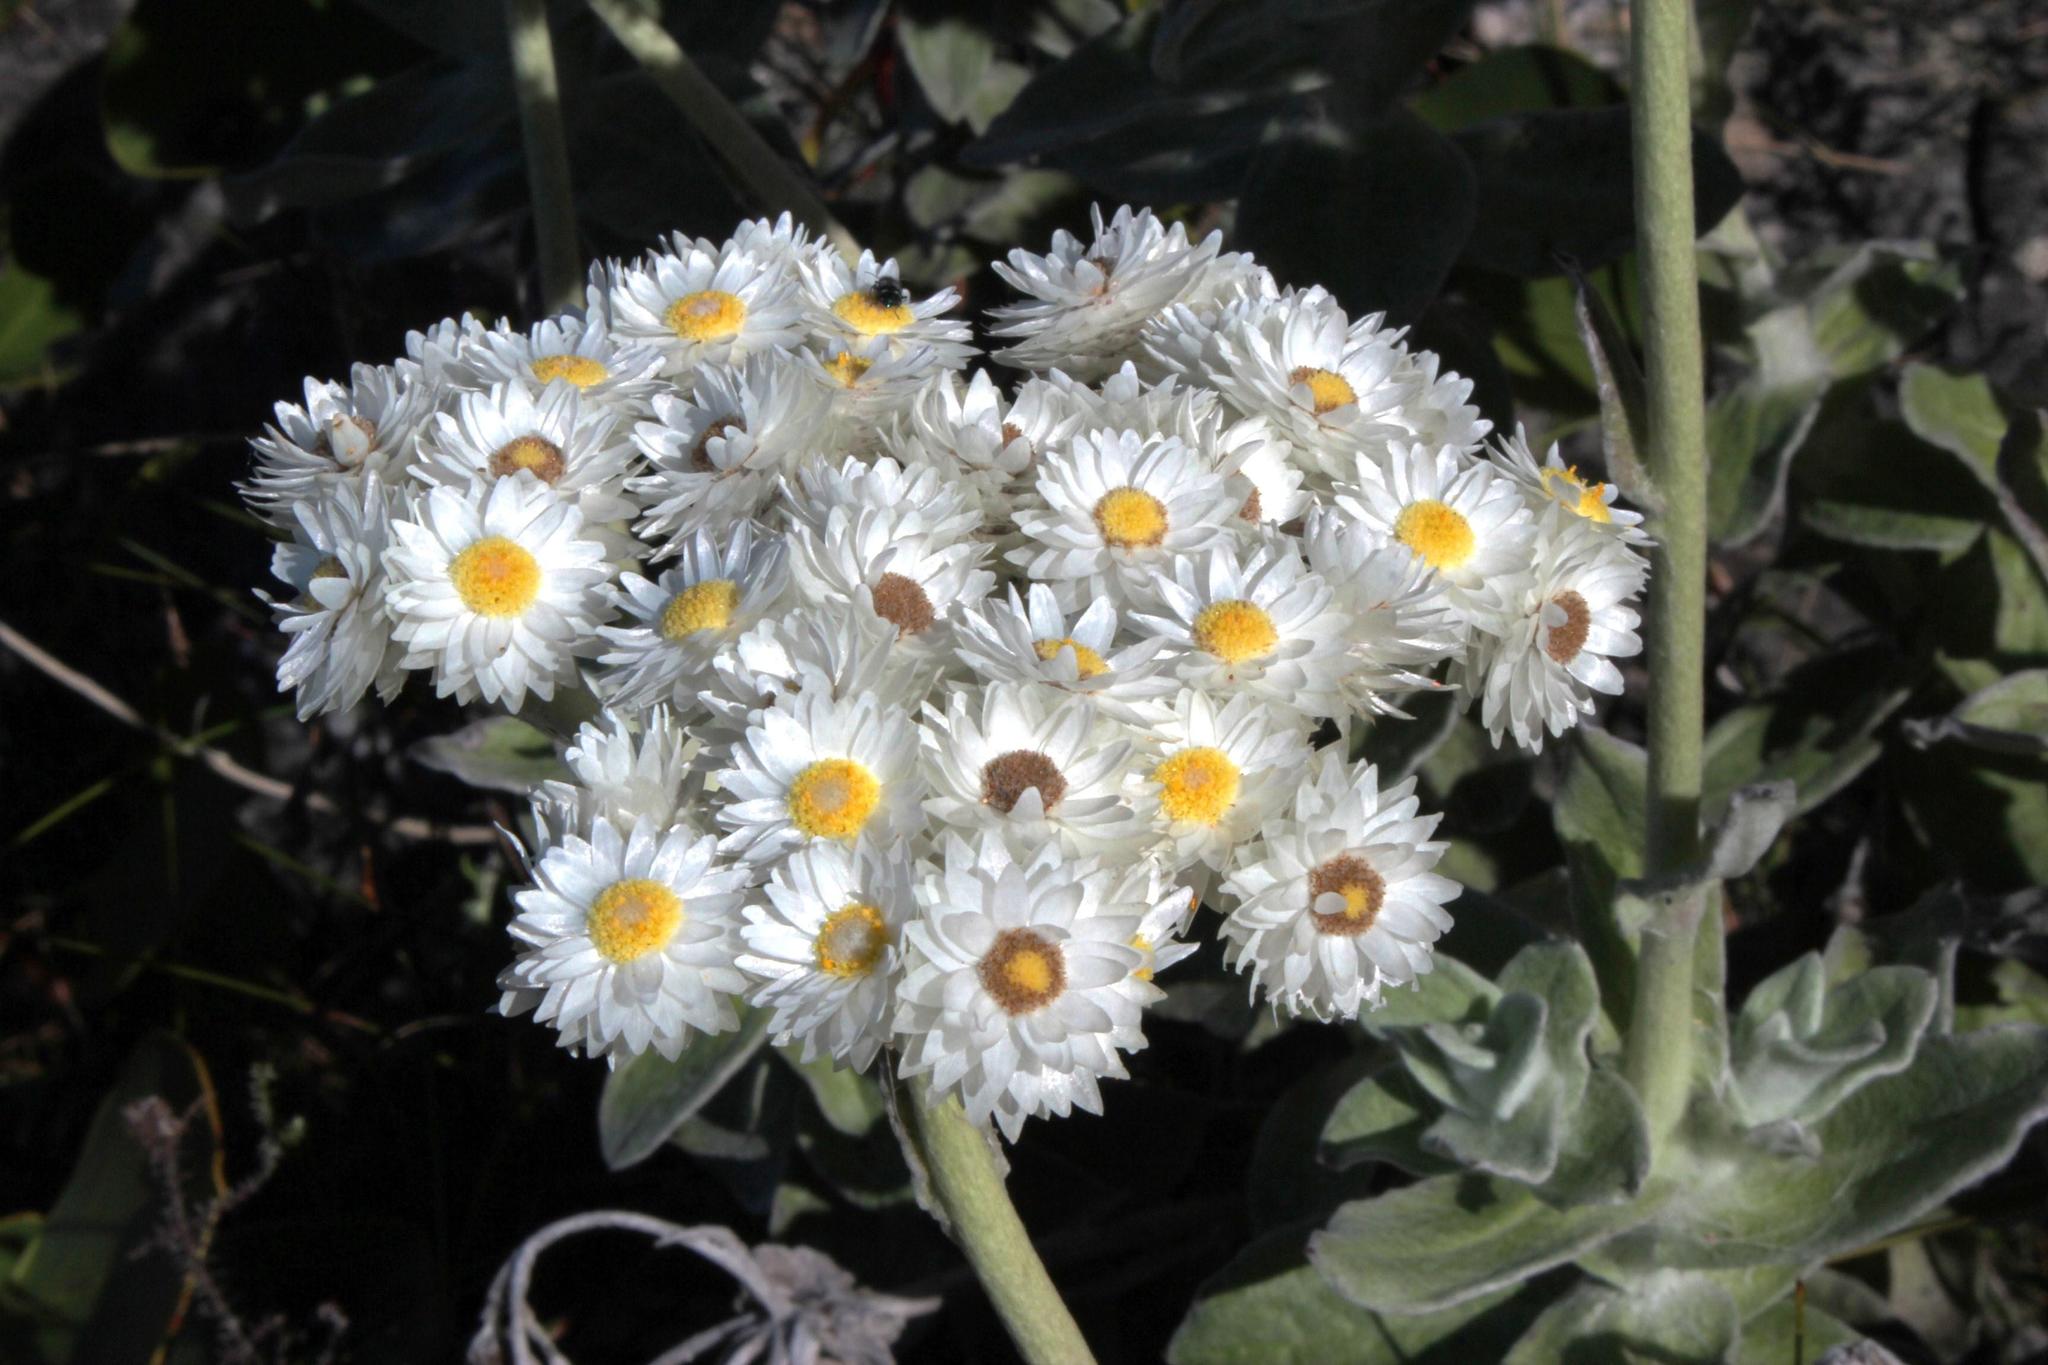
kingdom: Plantae
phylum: Tracheophyta
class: Magnoliopsida
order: Asterales
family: Asteraceae
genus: Helichrysum
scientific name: Helichrysum fruticans
